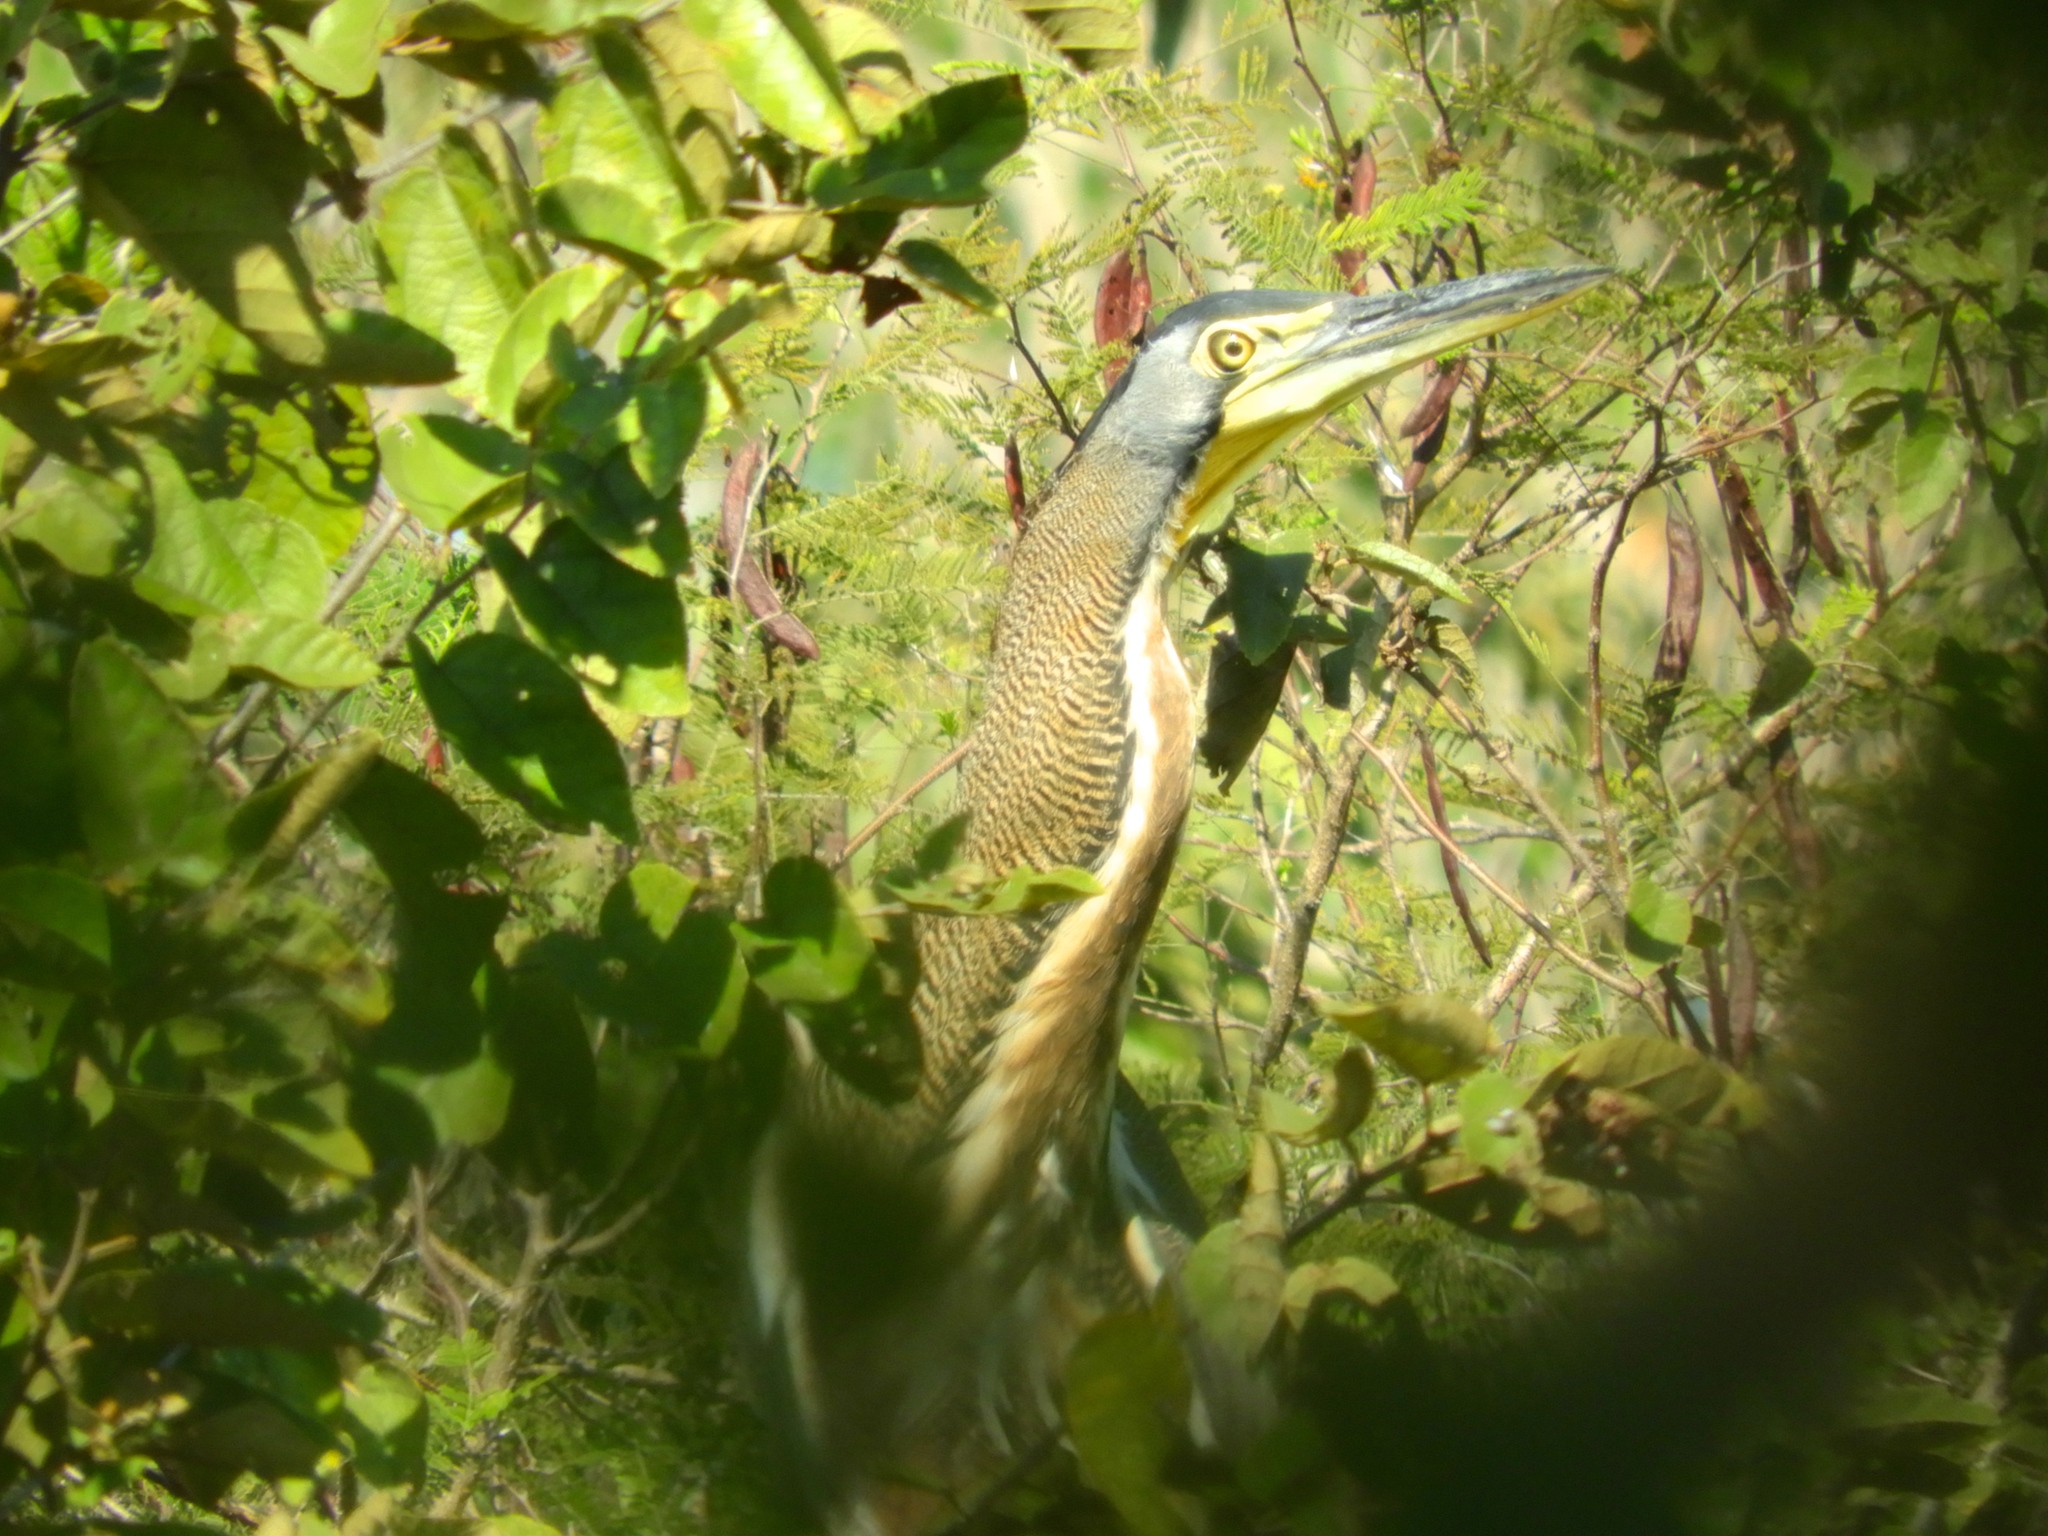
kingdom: Animalia
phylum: Chordata
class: Aves
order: Pelecaniformes
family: Ardeidae
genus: Tigrisoma
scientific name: Tigrisoma mexicanum
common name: Bare-throated tiger-heron
